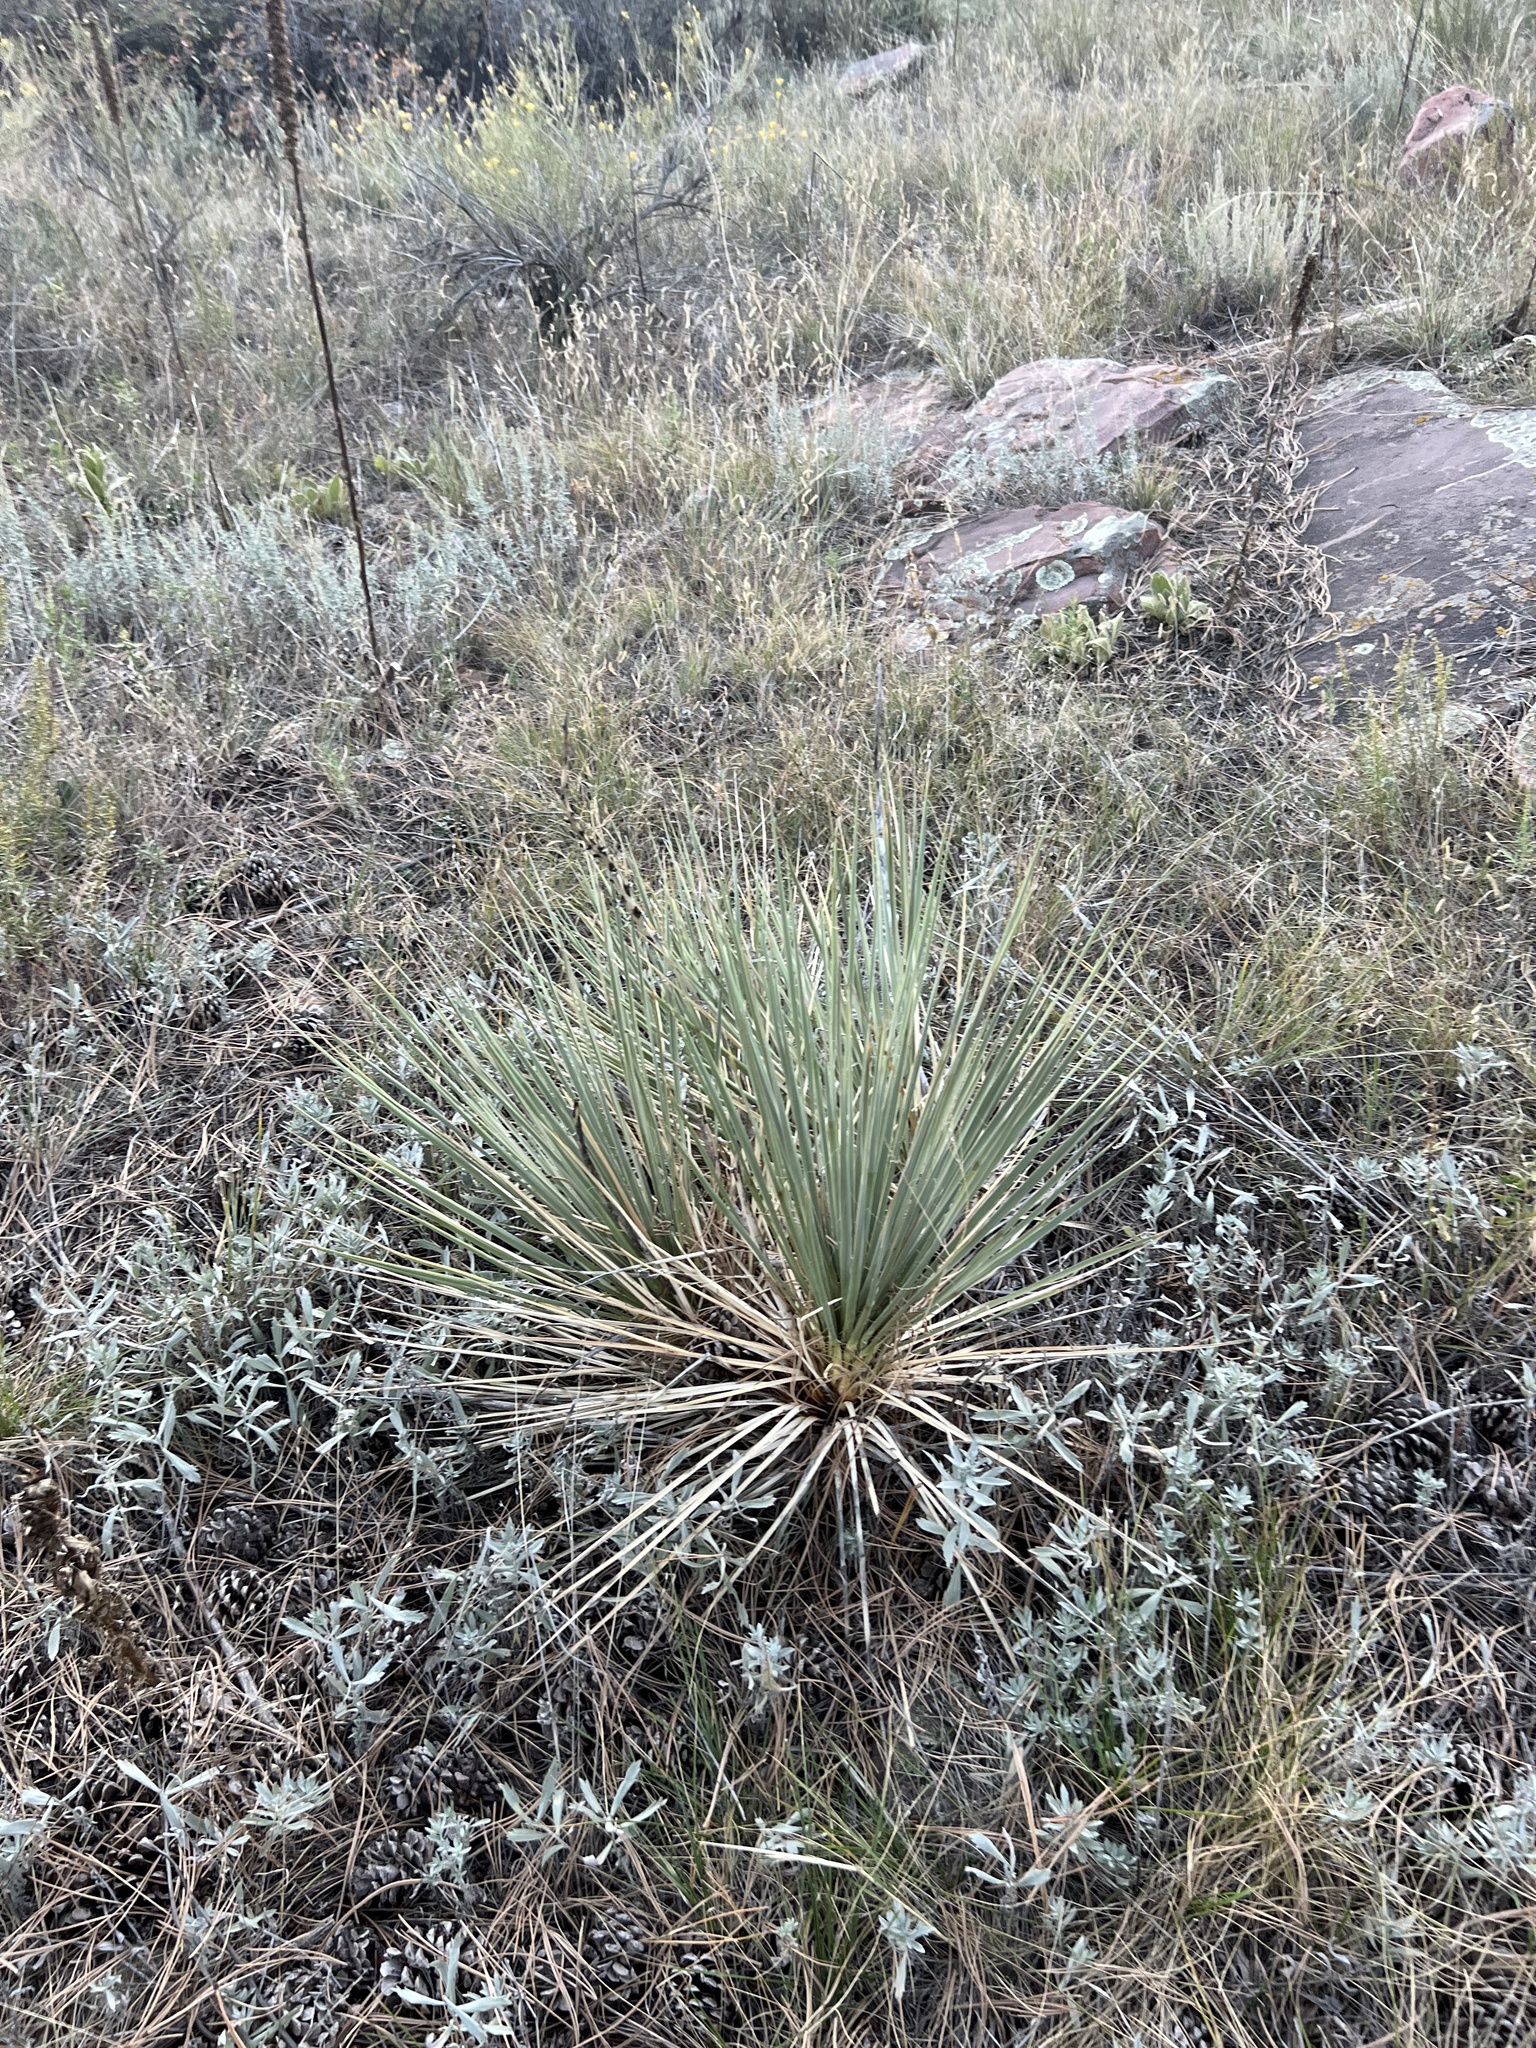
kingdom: Plantae
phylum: Tracheophyta
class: Liliopsida
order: Asparagales
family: Asparagaceae
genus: Yucca
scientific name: Yucca glauca
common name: Great plains yucca
